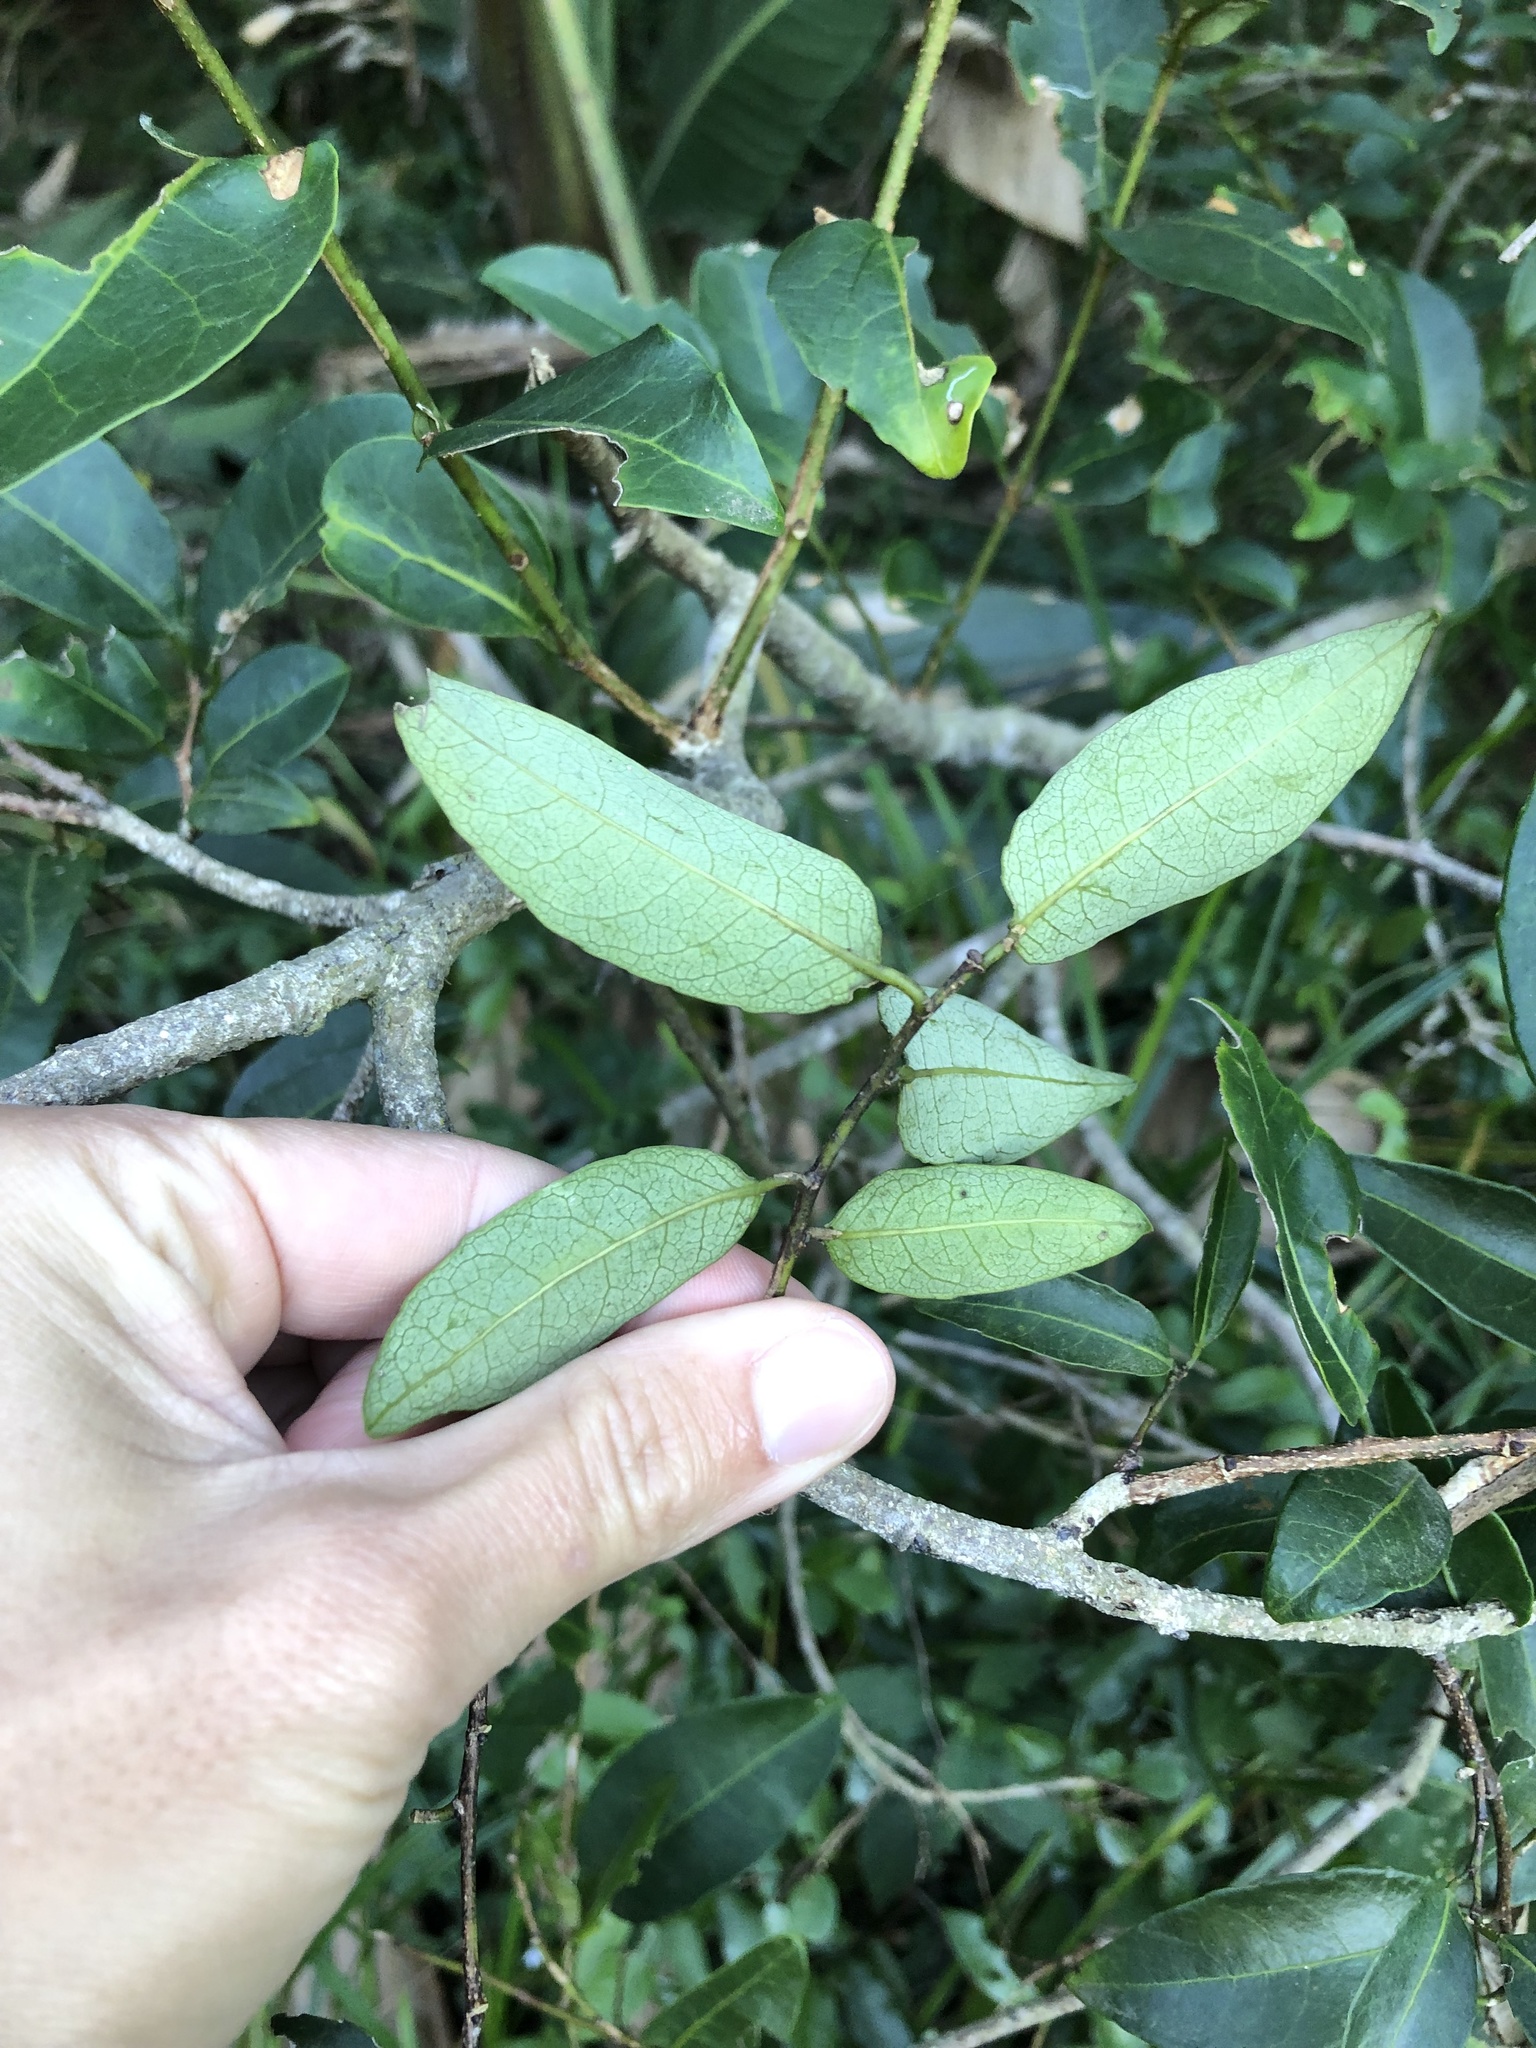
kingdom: Plantae
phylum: Tracheophyta
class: Magnoliopsida
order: Malpighiales
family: Euphorbiaceae
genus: Sclerocroton
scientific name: Sclerocroton integerrimus
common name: Duiker berry
